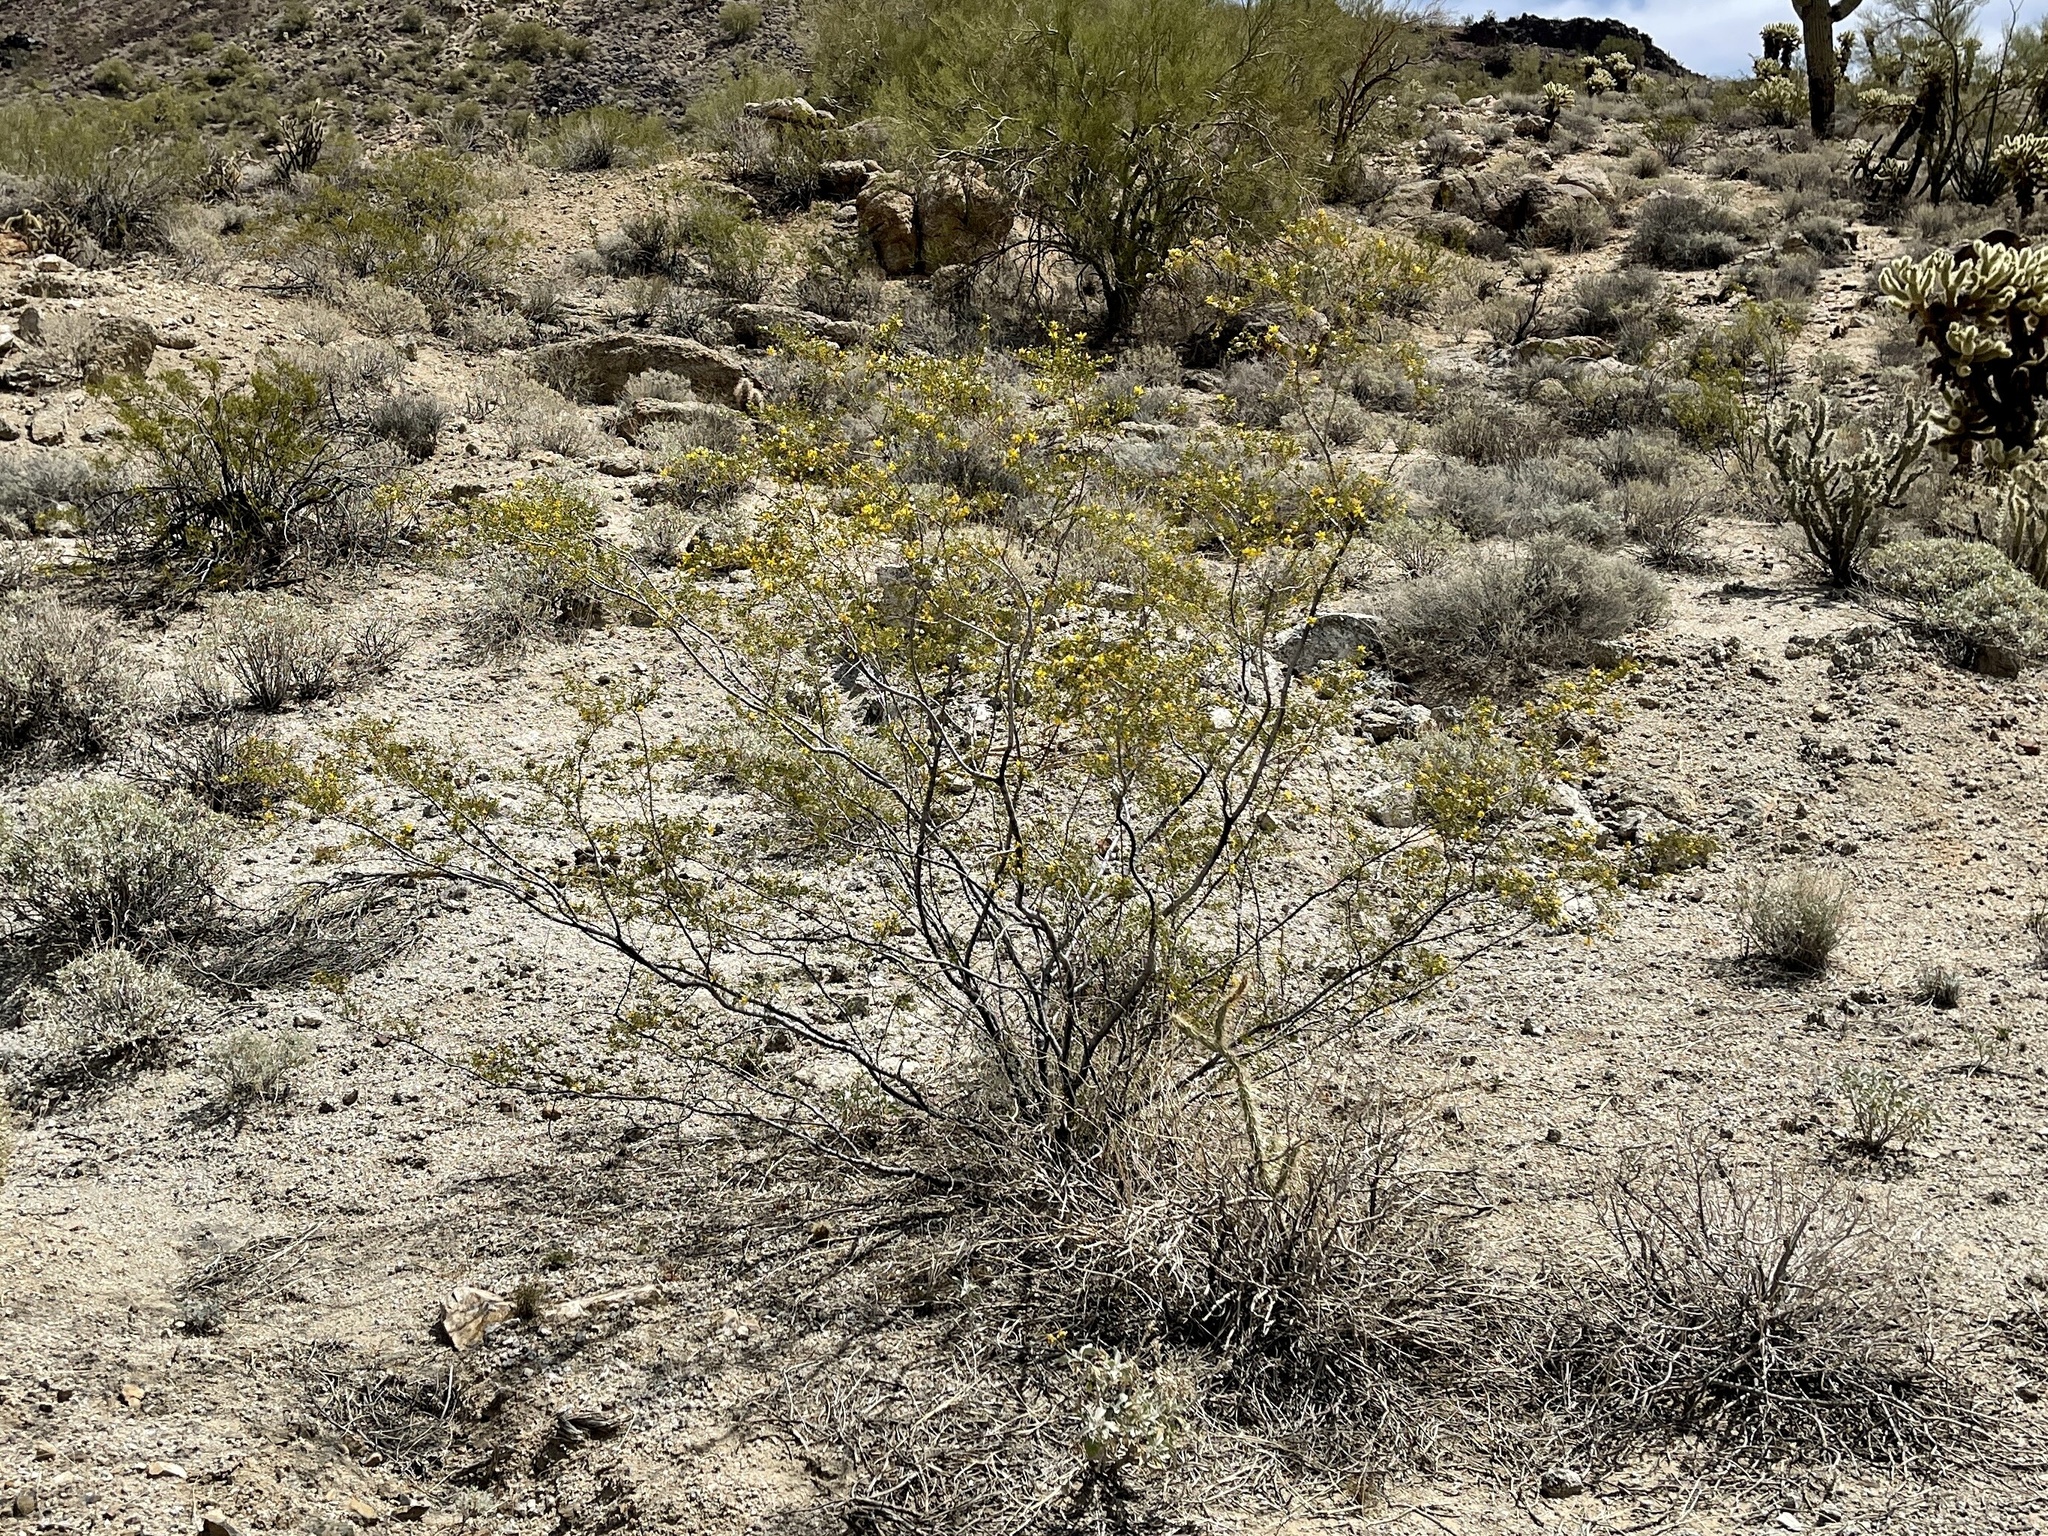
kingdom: Plantae
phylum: Tracheophyta
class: Magnoliopsida
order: Zygophyllales
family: Zygophyllaceae
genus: Larrea
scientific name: Larrea tridentata
